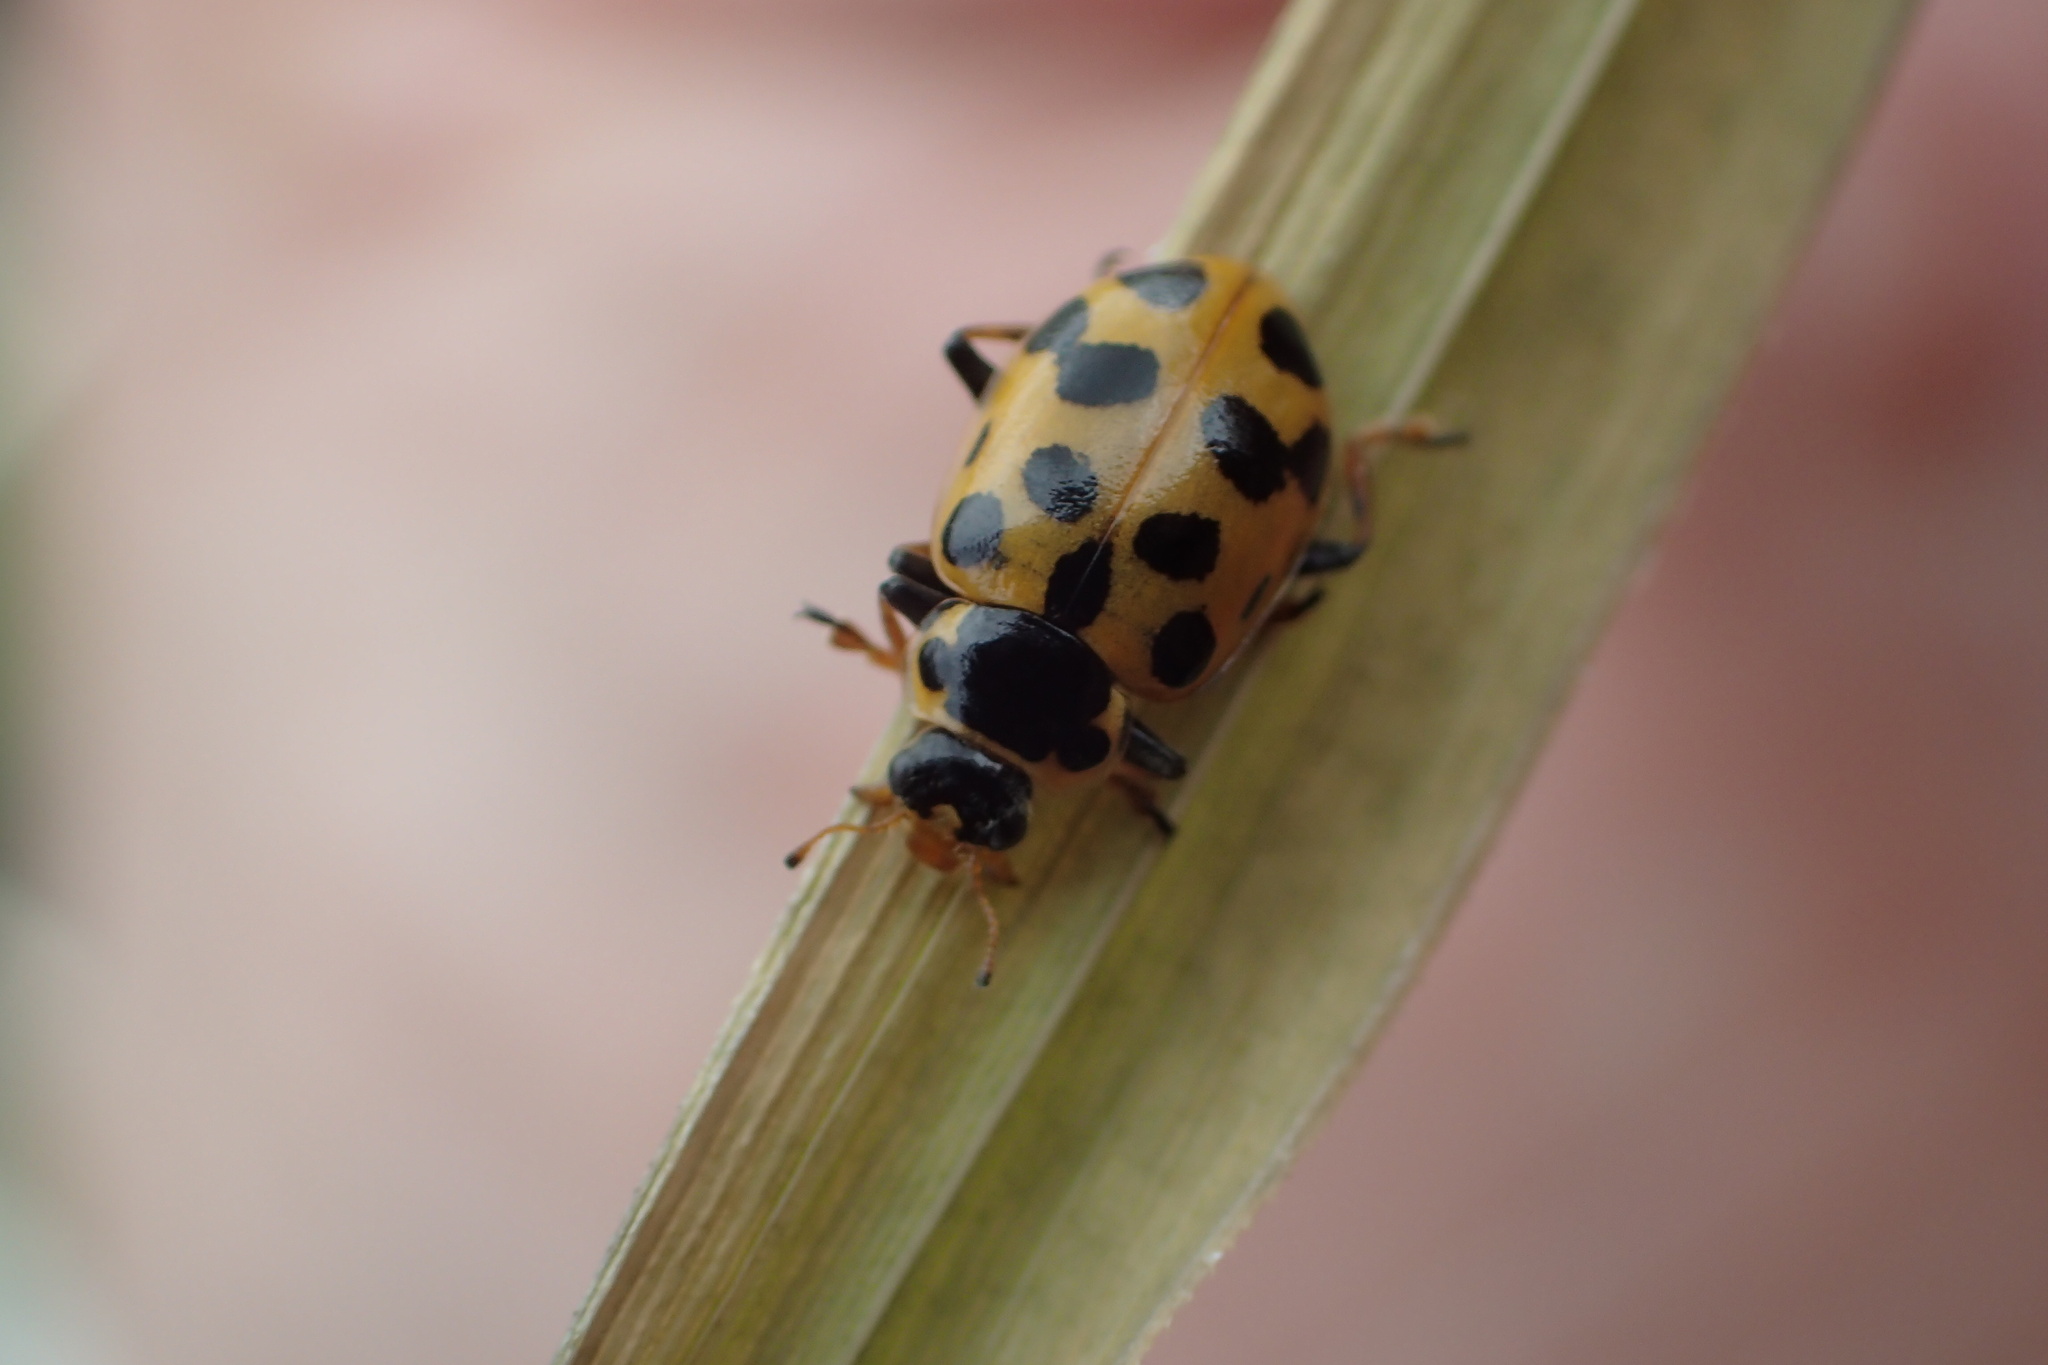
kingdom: Animalia
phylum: Arthropoda
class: Insecta
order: Coleoptera
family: Coccinellidae
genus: Hippodamia
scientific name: Hippodamia tredecimpunctata
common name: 13-spot ladybird
